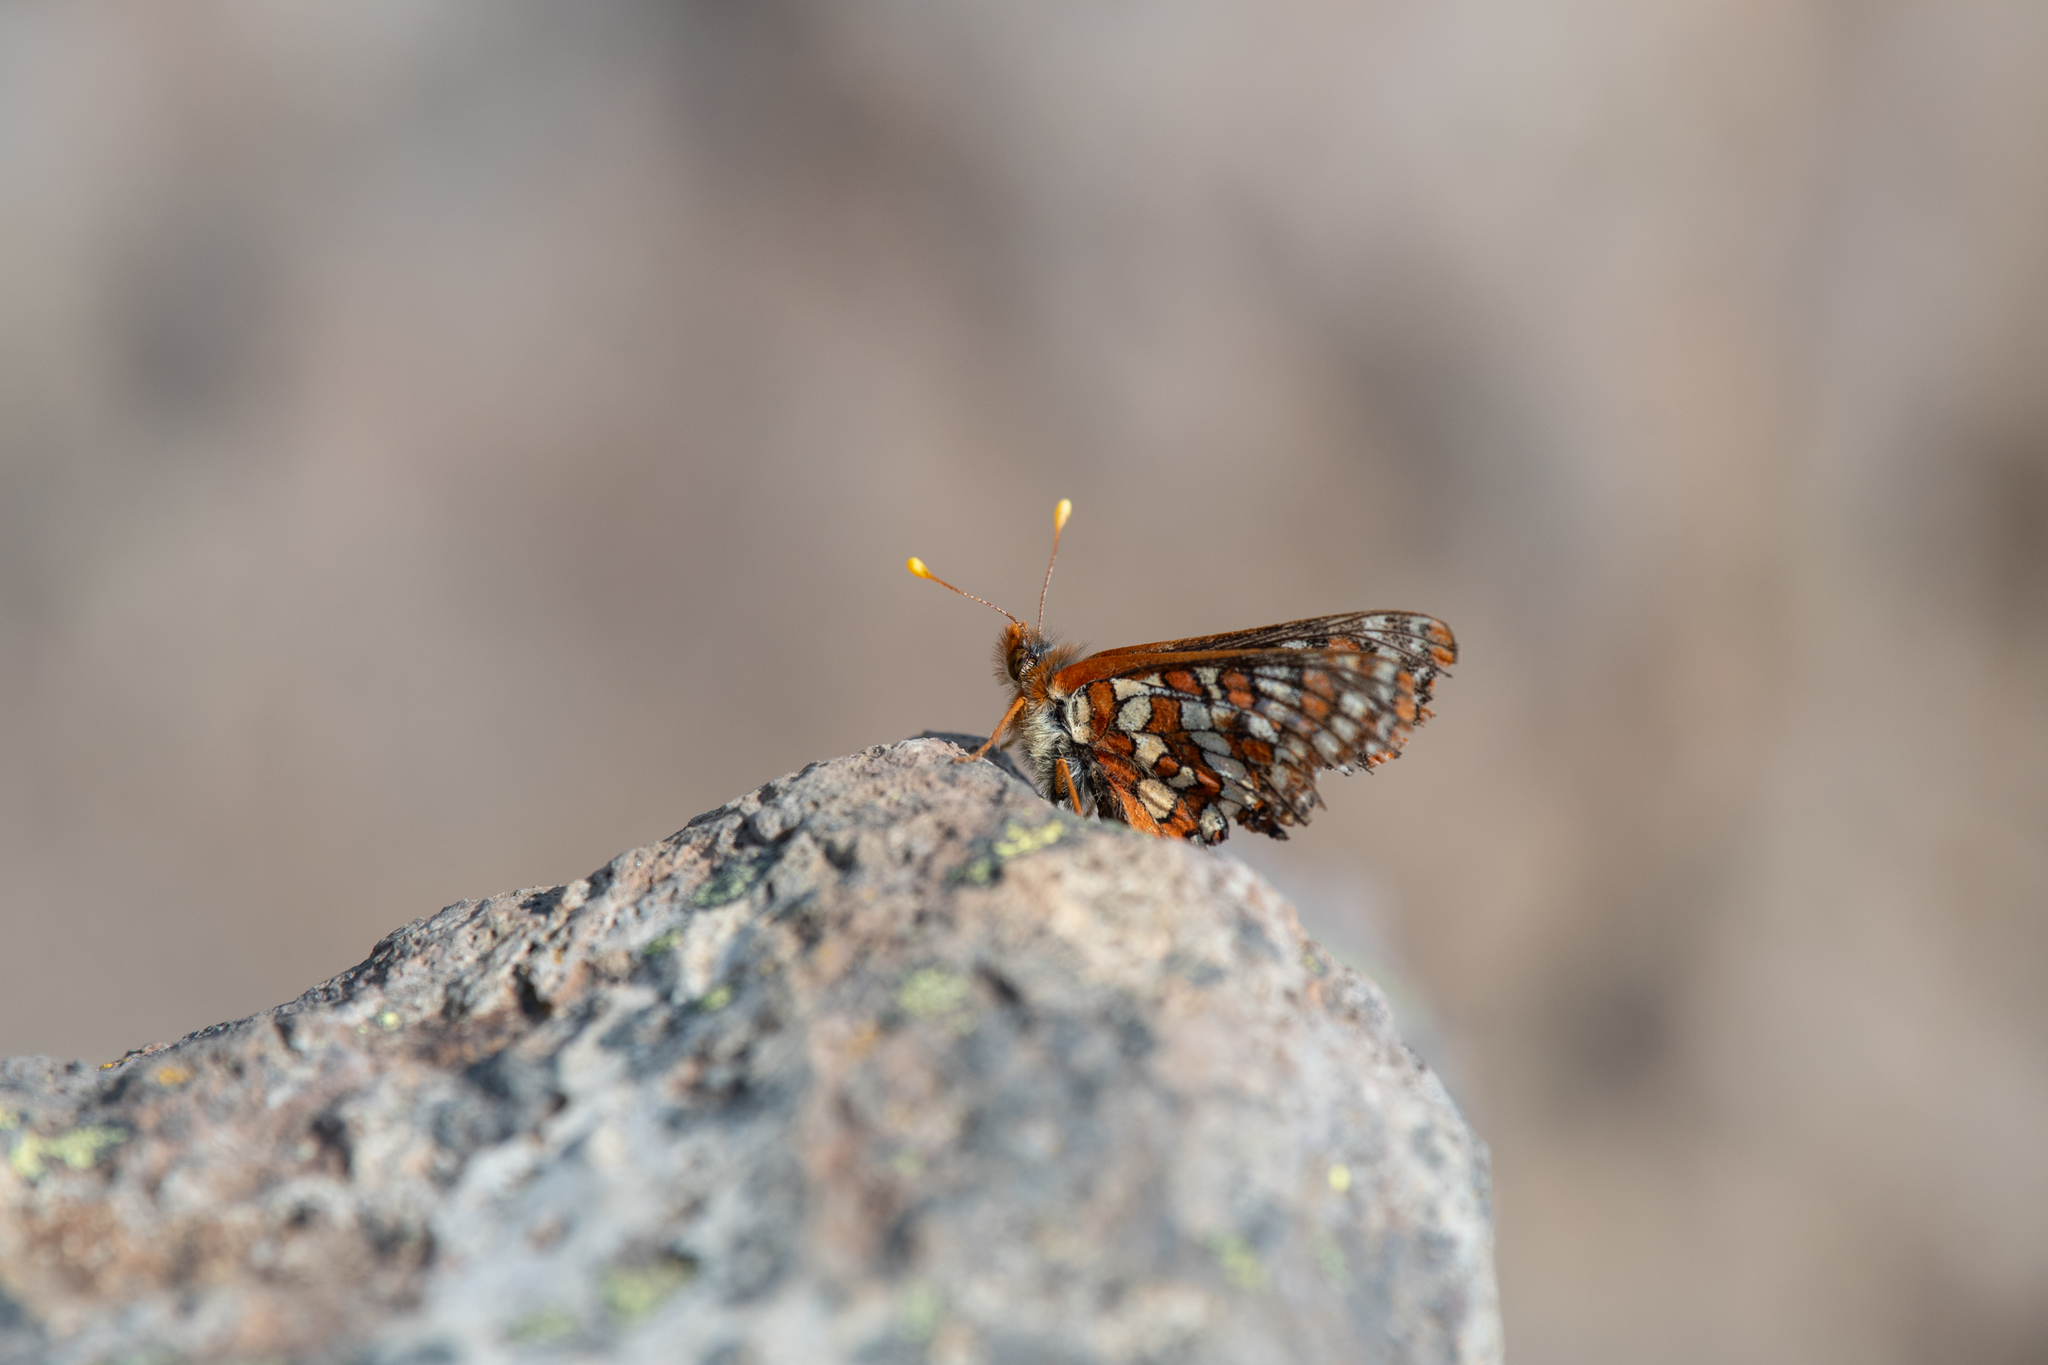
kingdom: Animalia
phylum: Arthropoda
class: Insecta
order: Lepidoptera
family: Nymphalidae
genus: Occidryas
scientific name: Occidryas editha
